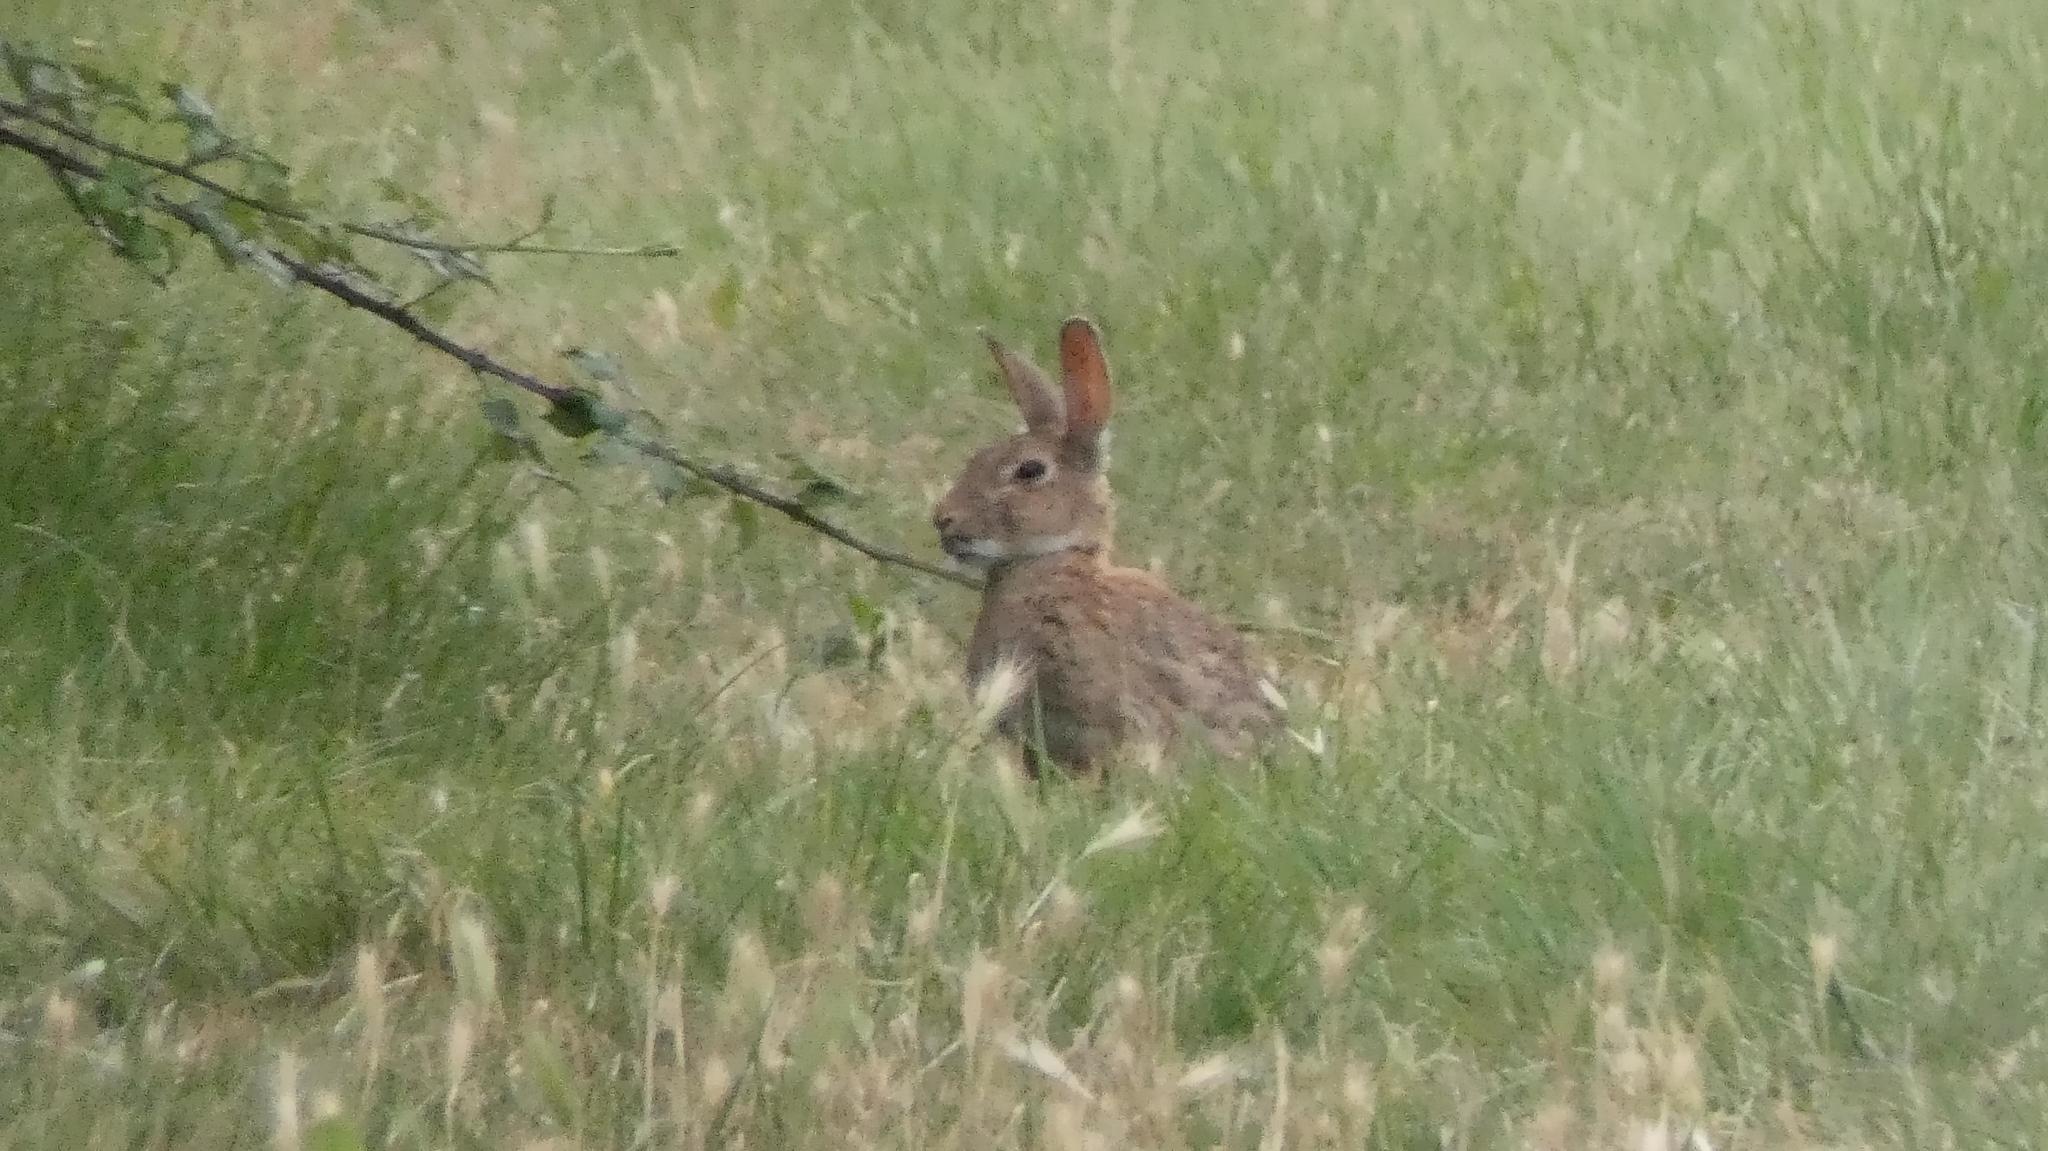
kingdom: Animalia
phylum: Chordata
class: Mammalia
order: Lagomorpha
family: Leporidae
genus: Oryctolagus
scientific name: Oryctolagus cuniculus
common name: European rabbit
